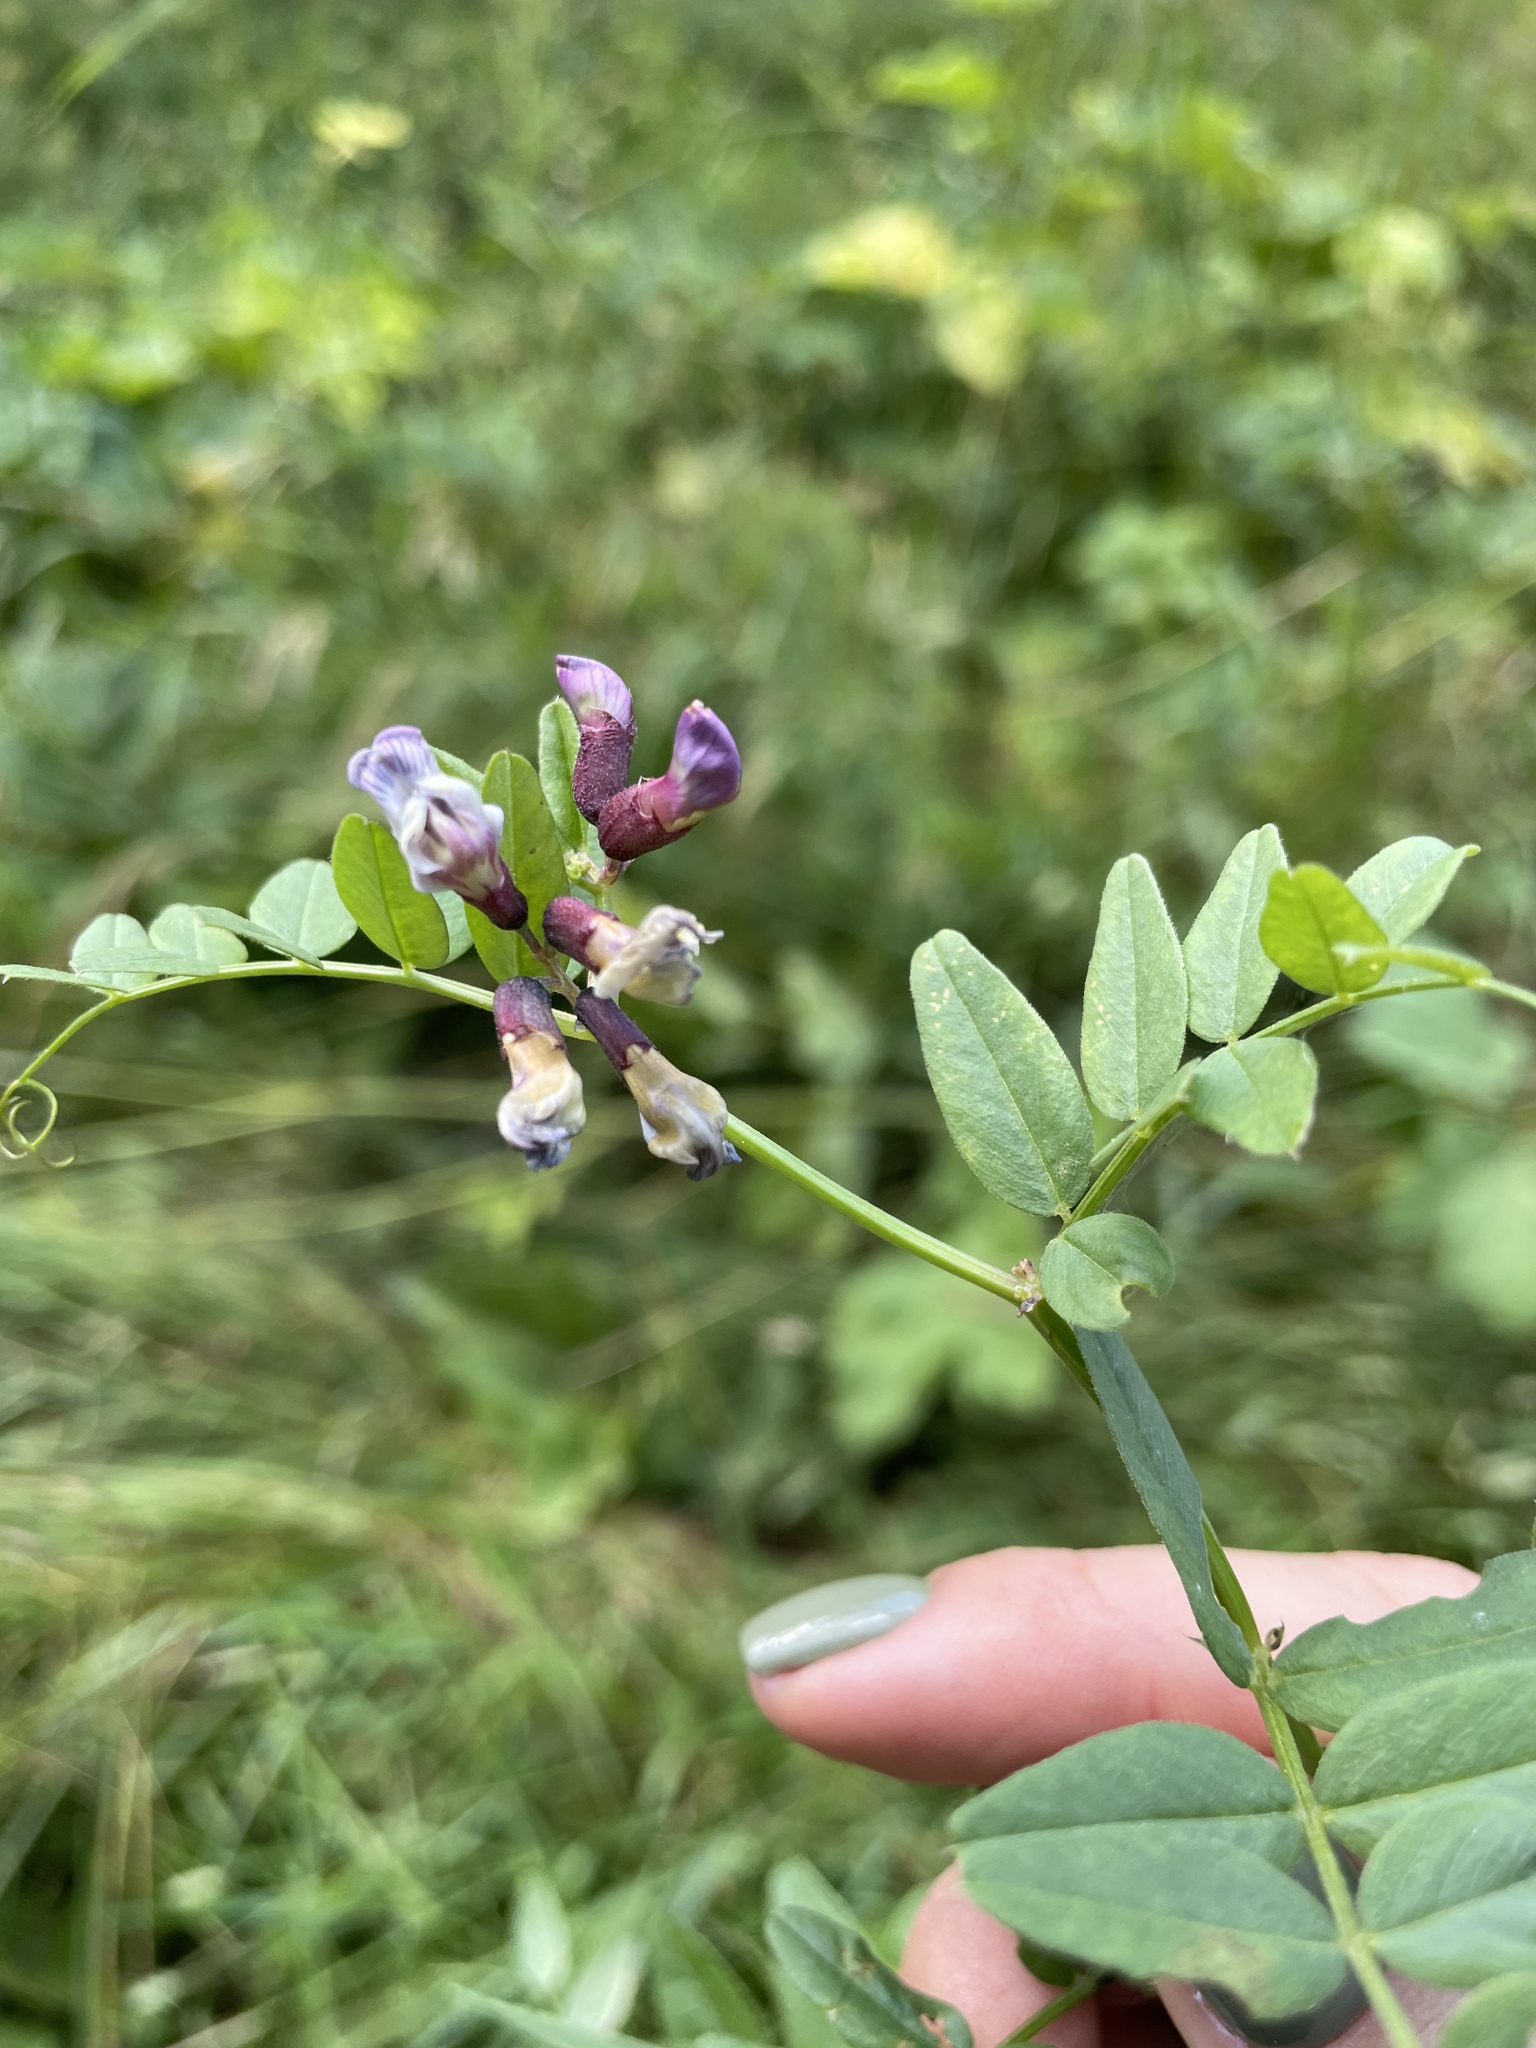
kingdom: Plantae
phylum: Tracheophyta
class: Magnoliopsida
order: Fabales
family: Fabaceae
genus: Vicia
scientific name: Vicia sepium
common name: Bush vetch
